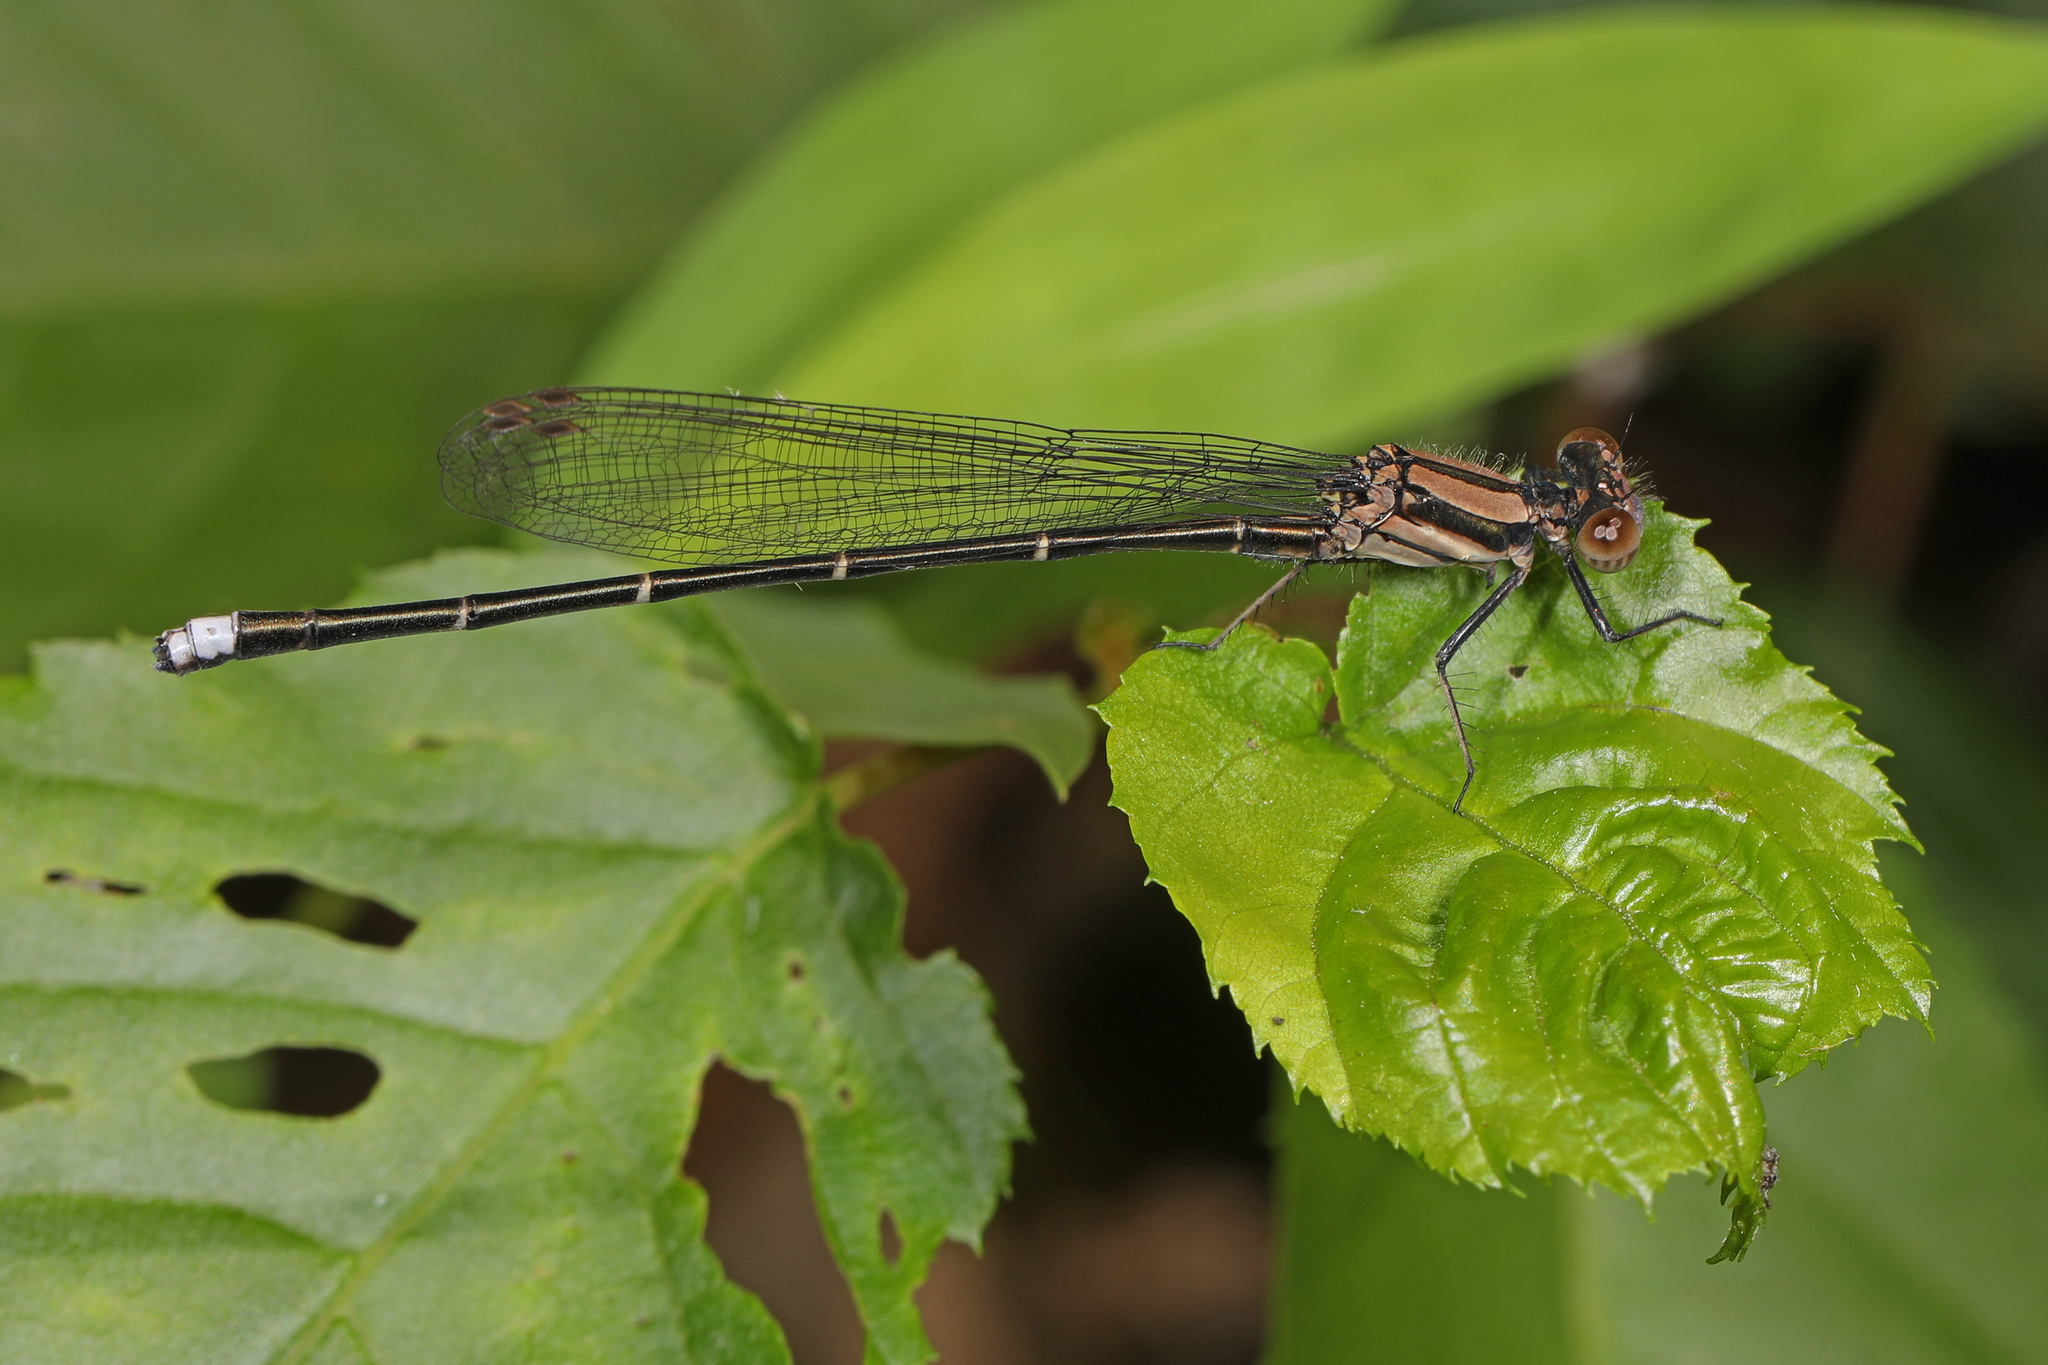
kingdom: Animalia
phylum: Arthropoda
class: Insecta
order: Odonata
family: Coenagrionidae
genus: Argia
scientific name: Argia tibialis
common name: Blue-tipped dancer
